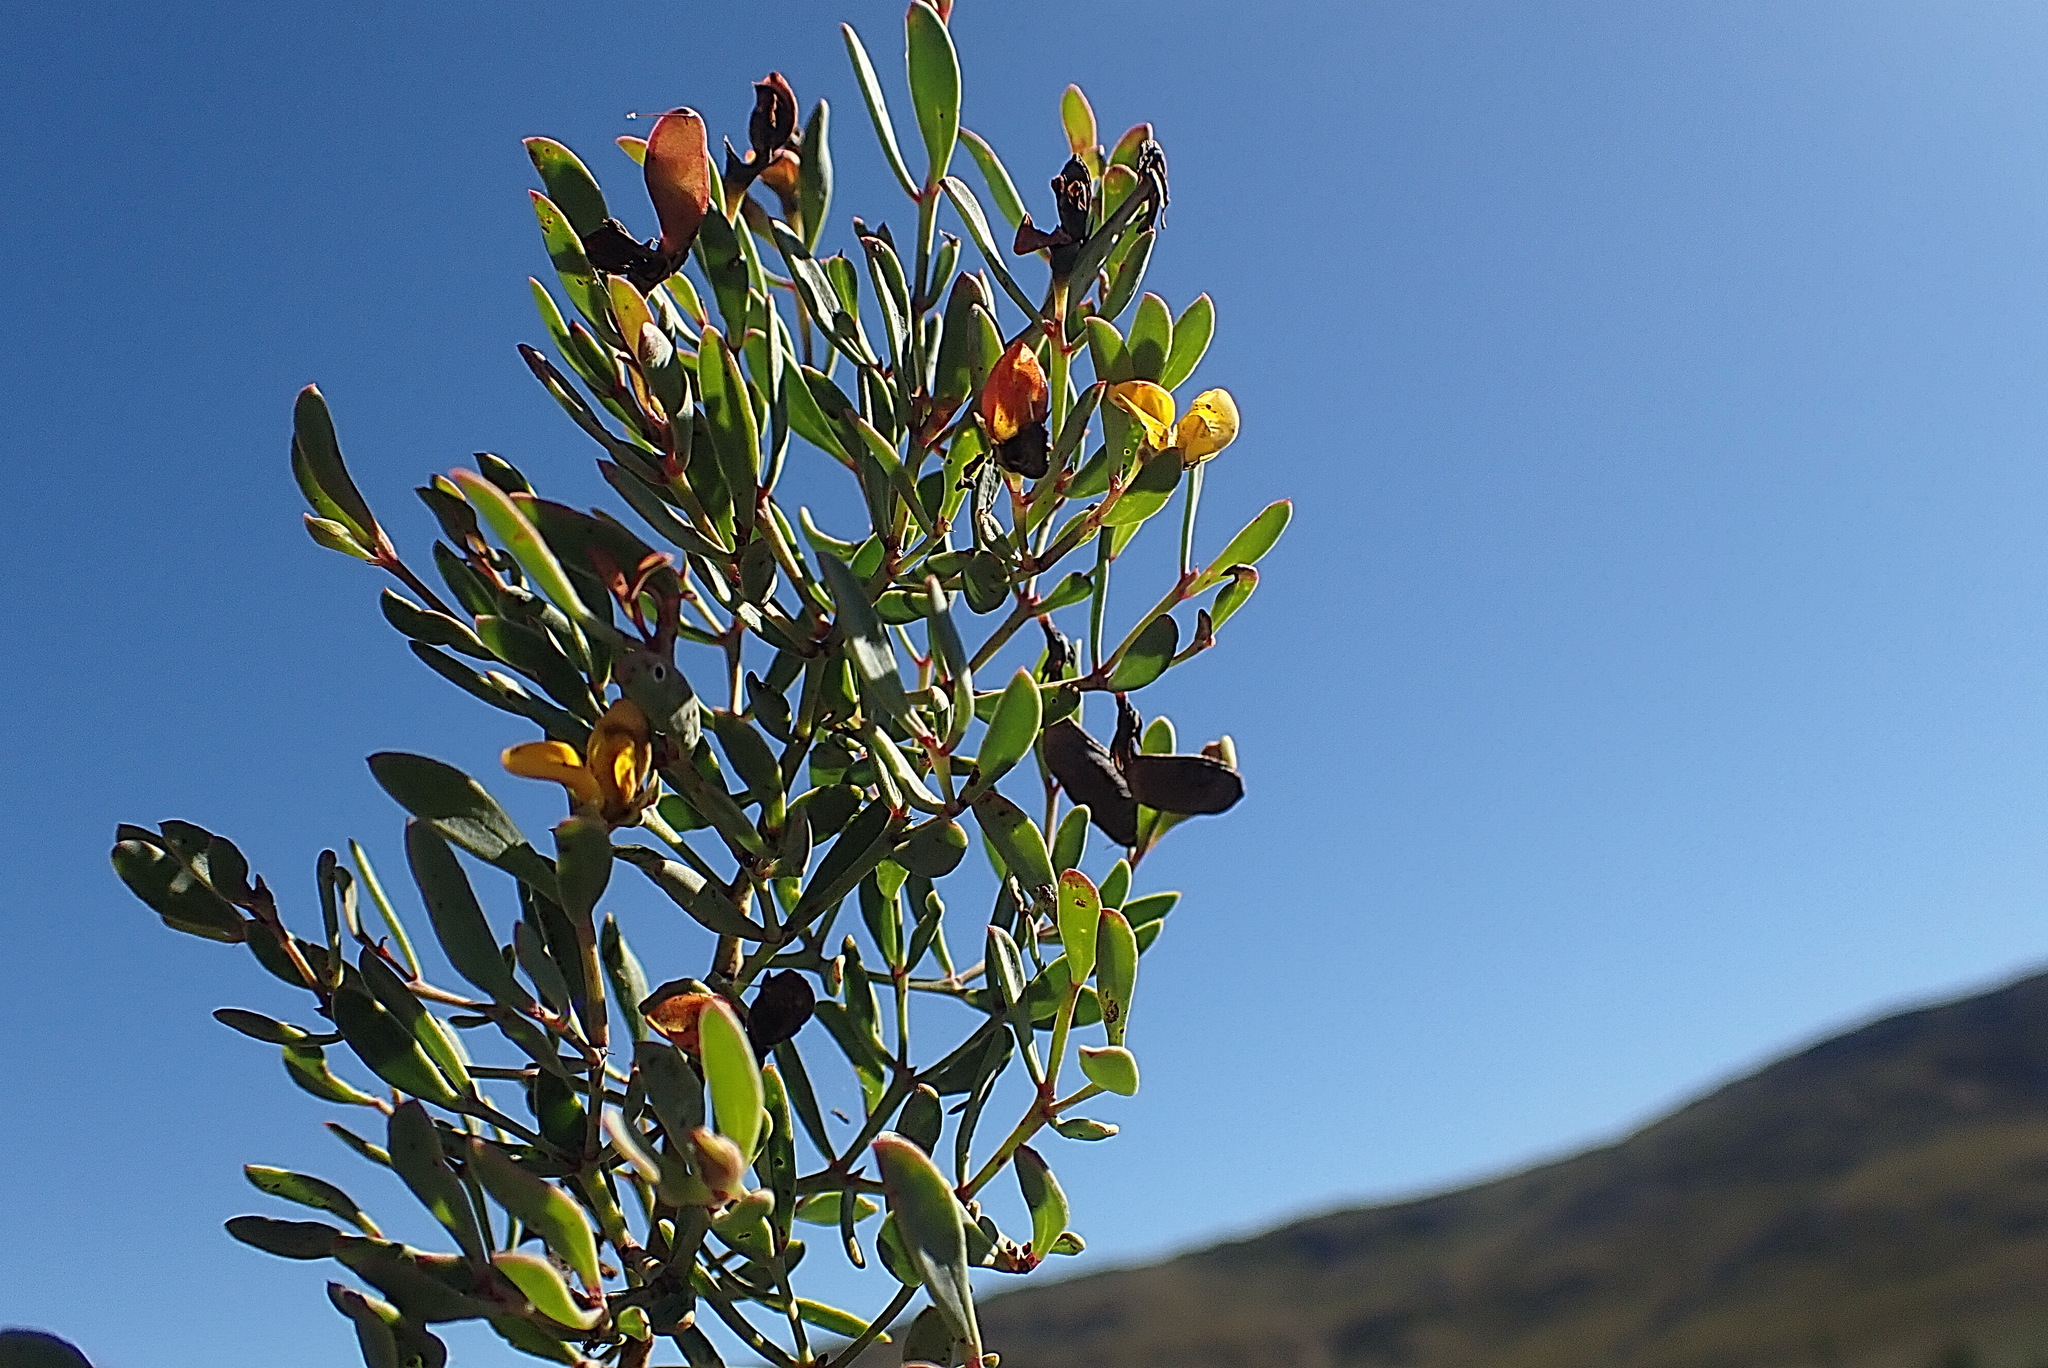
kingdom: Plantae
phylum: Tracheophyta
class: Magnoliopsida
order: Fabales
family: Fabaceae
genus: Rafnia
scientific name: Rafnia capensis
